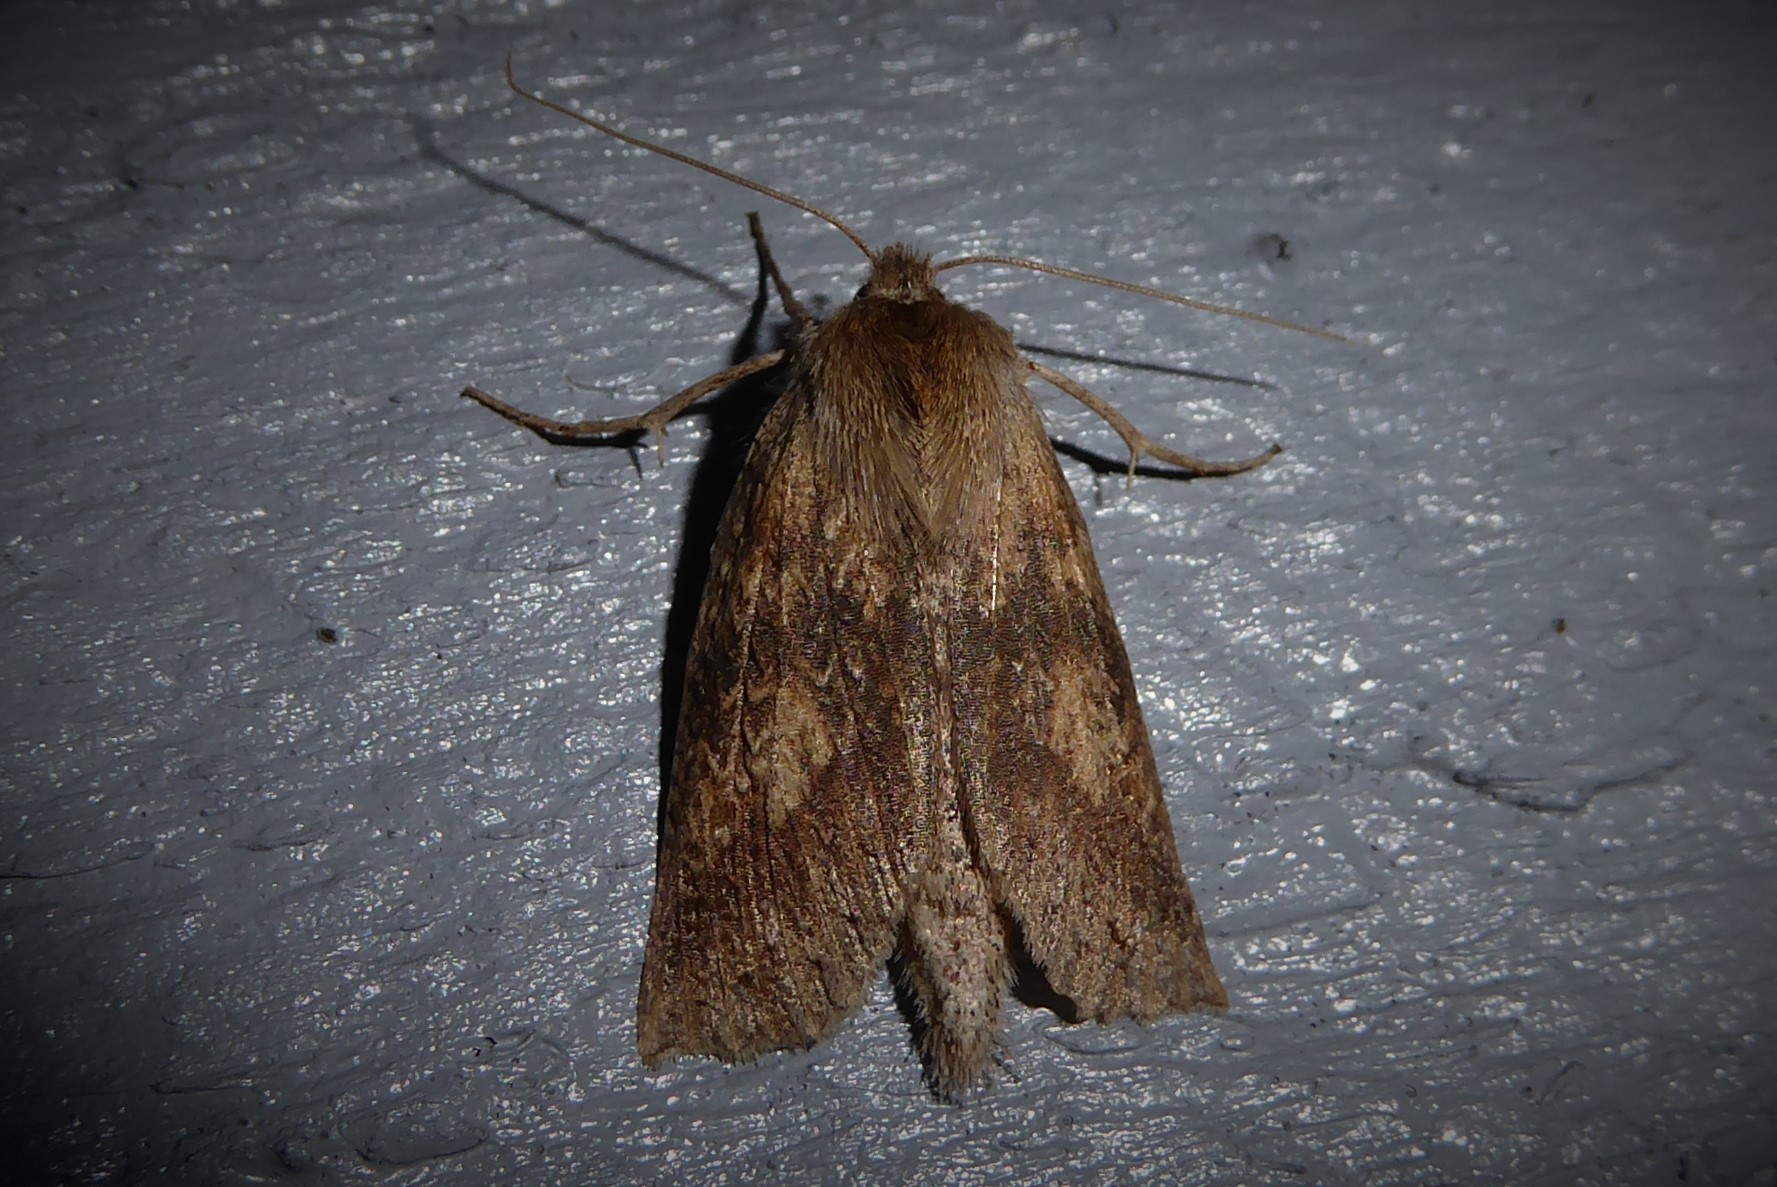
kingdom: Animalia
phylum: Arthropoda
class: Insecta
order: Lepidoptera
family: Geometridae
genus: Declana
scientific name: Declana leptomera
